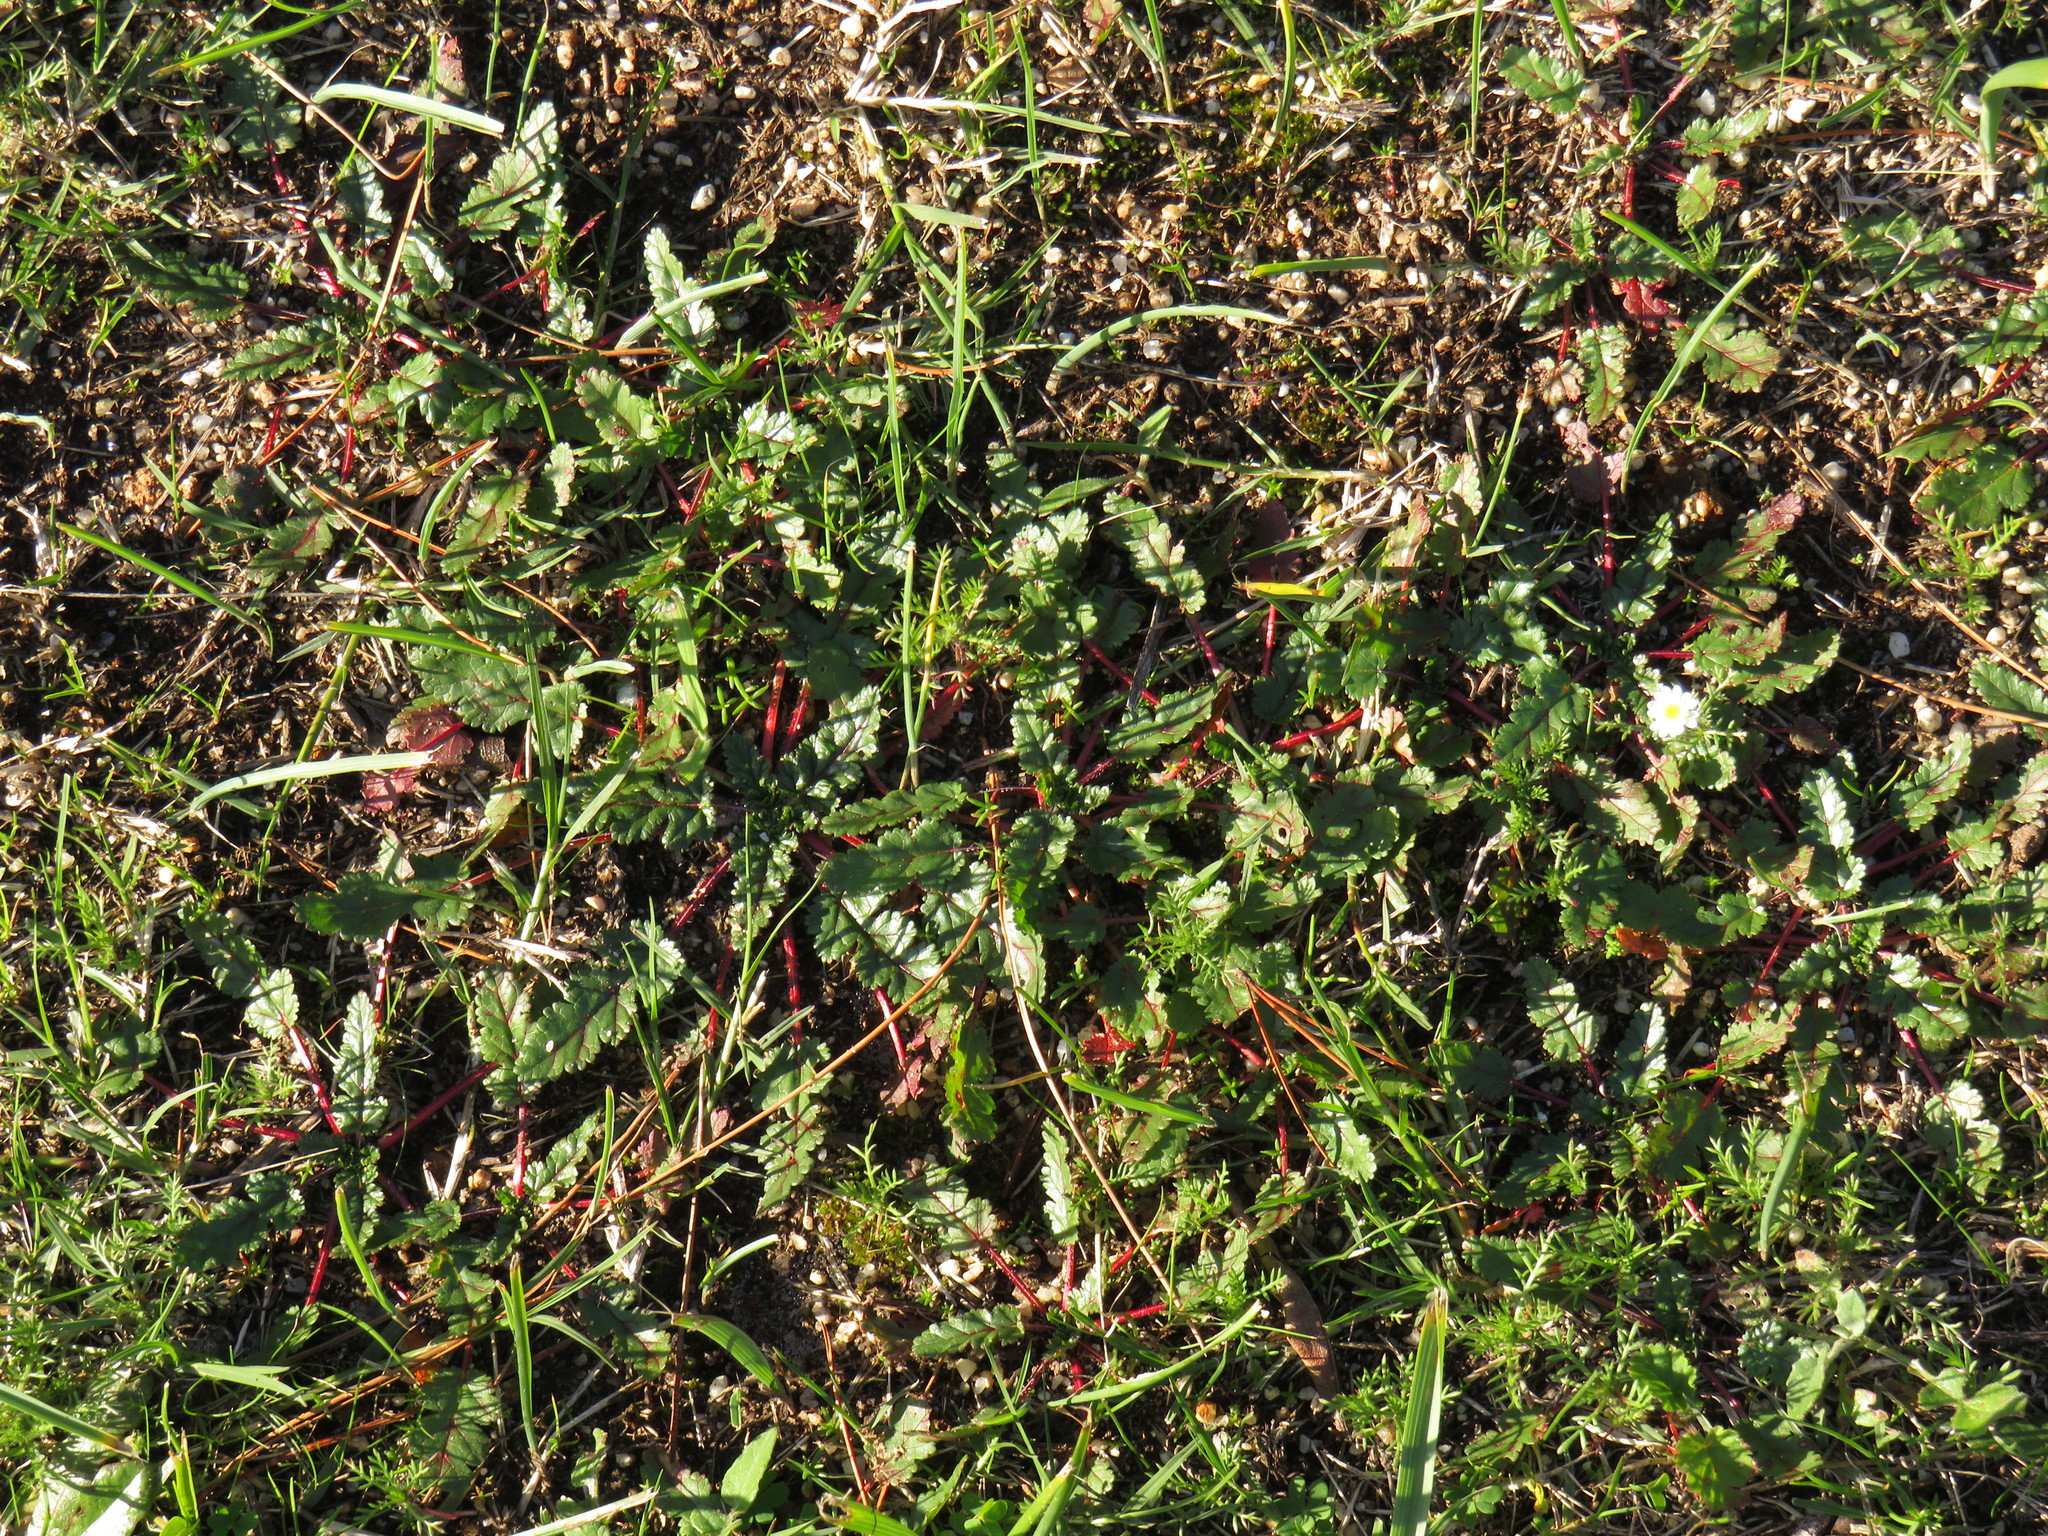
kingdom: Plantae
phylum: Tracheophyta
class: Magnoliopsida
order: Geraniales
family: Geraniaceae
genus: Erodium
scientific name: Erodium botrys
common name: Mediterranean stork's-bill
